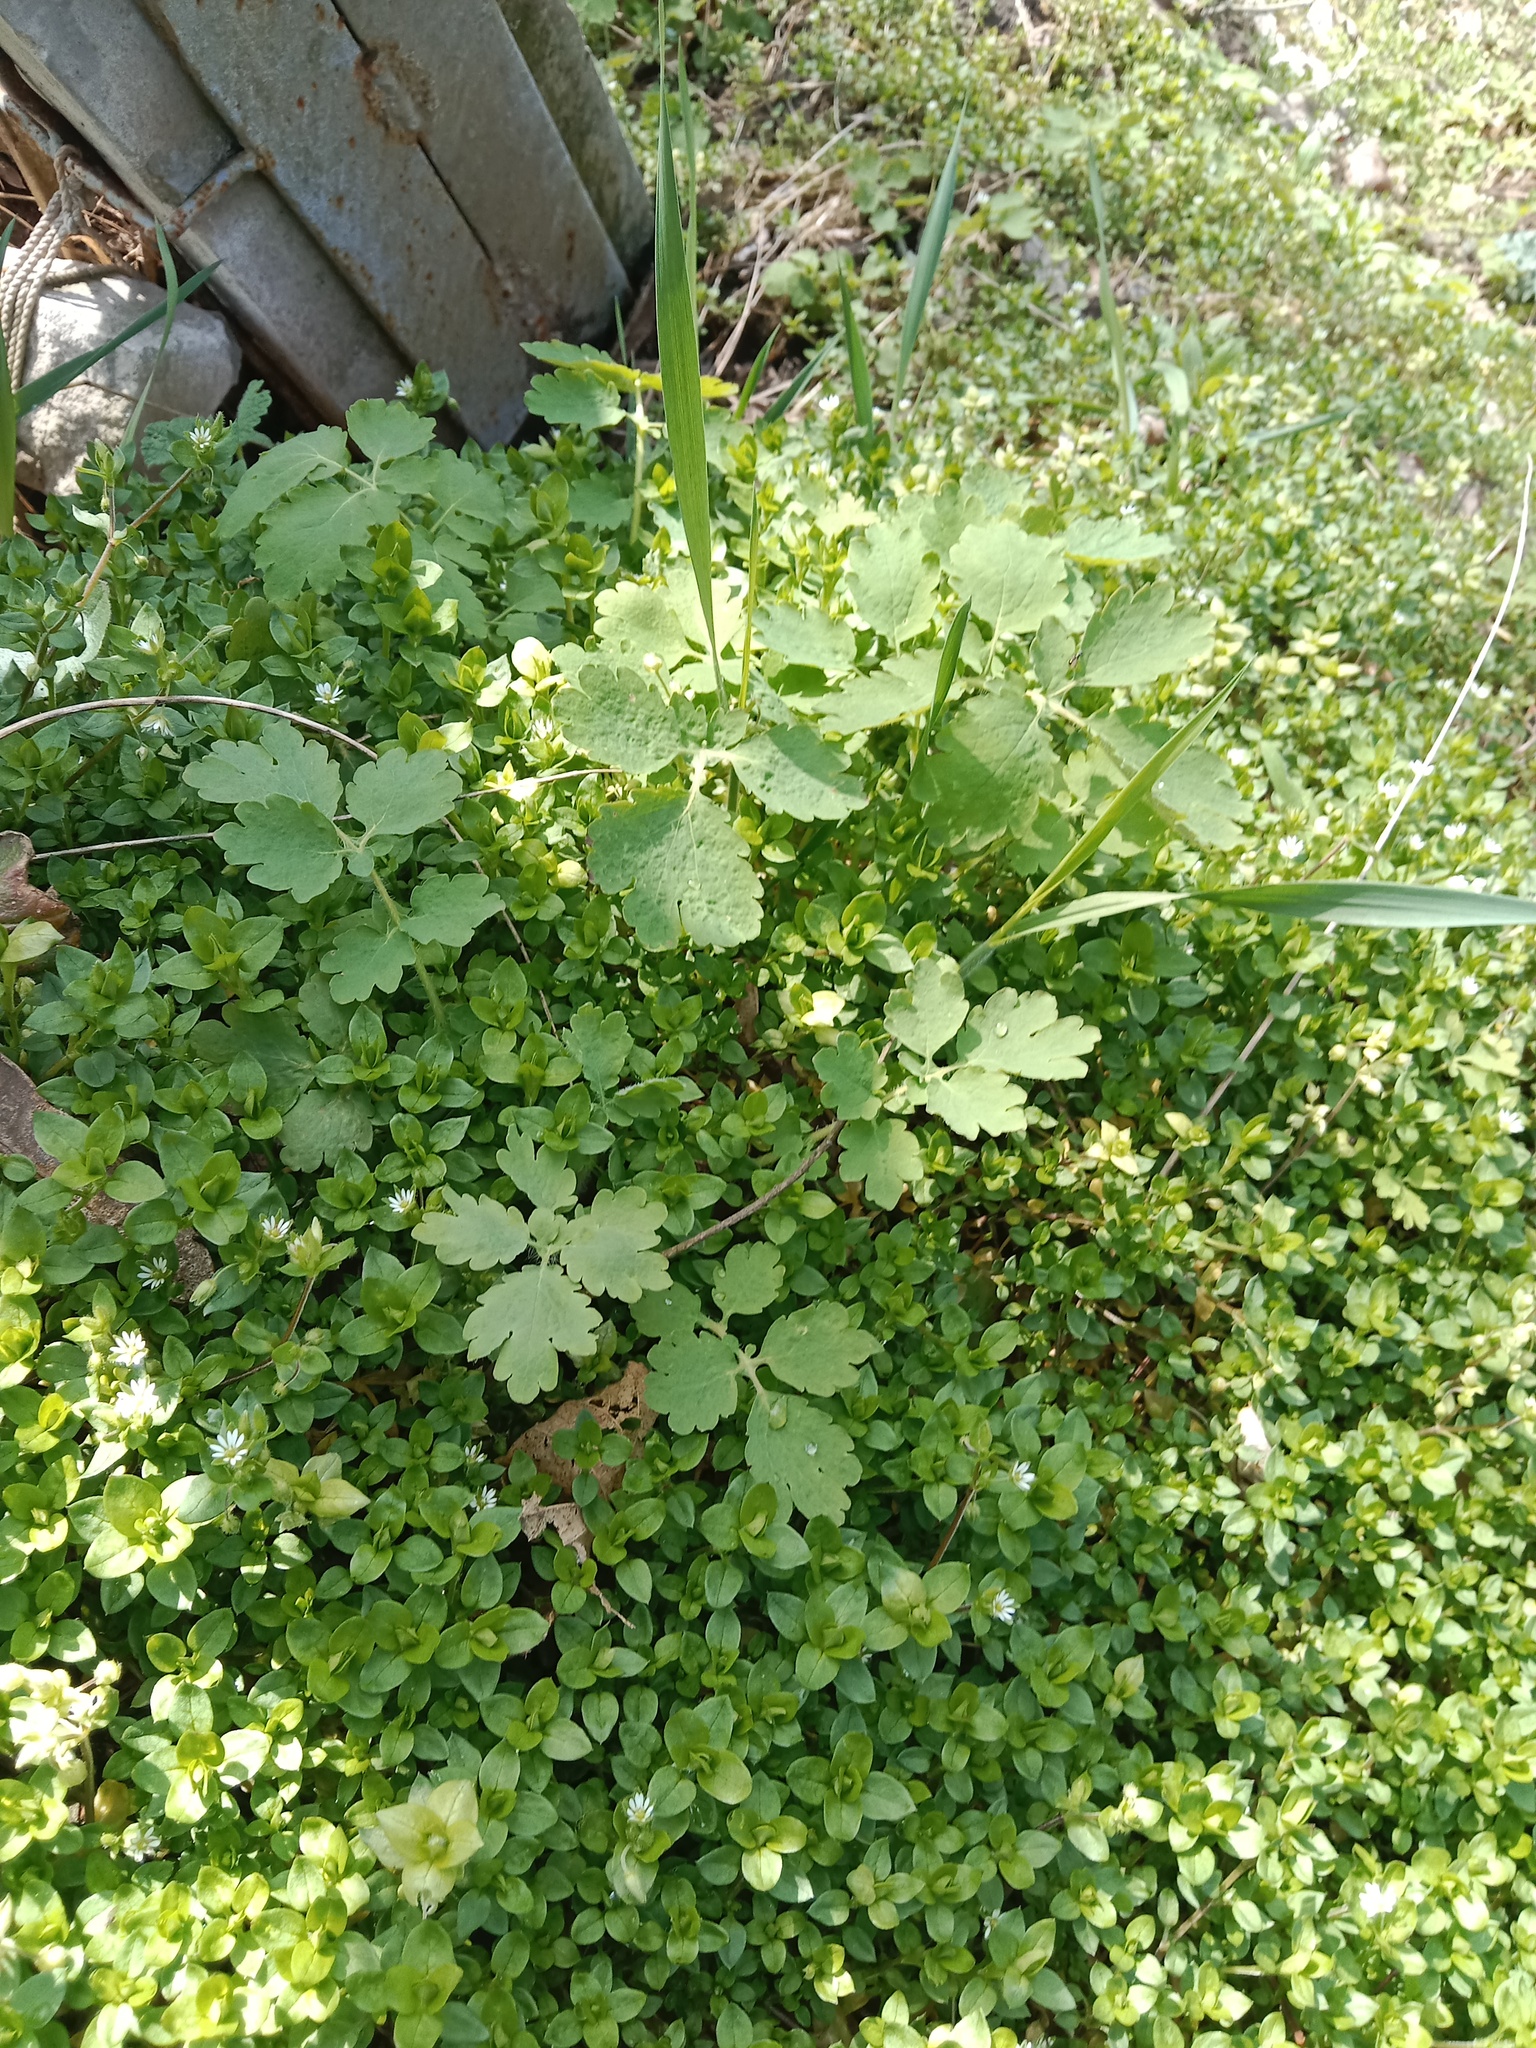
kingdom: Plantae
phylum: Tracheophyta
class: Magnoliopsida
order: Ranunculales
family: Papaveraceae
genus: Chelidonium
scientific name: Chelidonium majus
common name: Greater celandine
